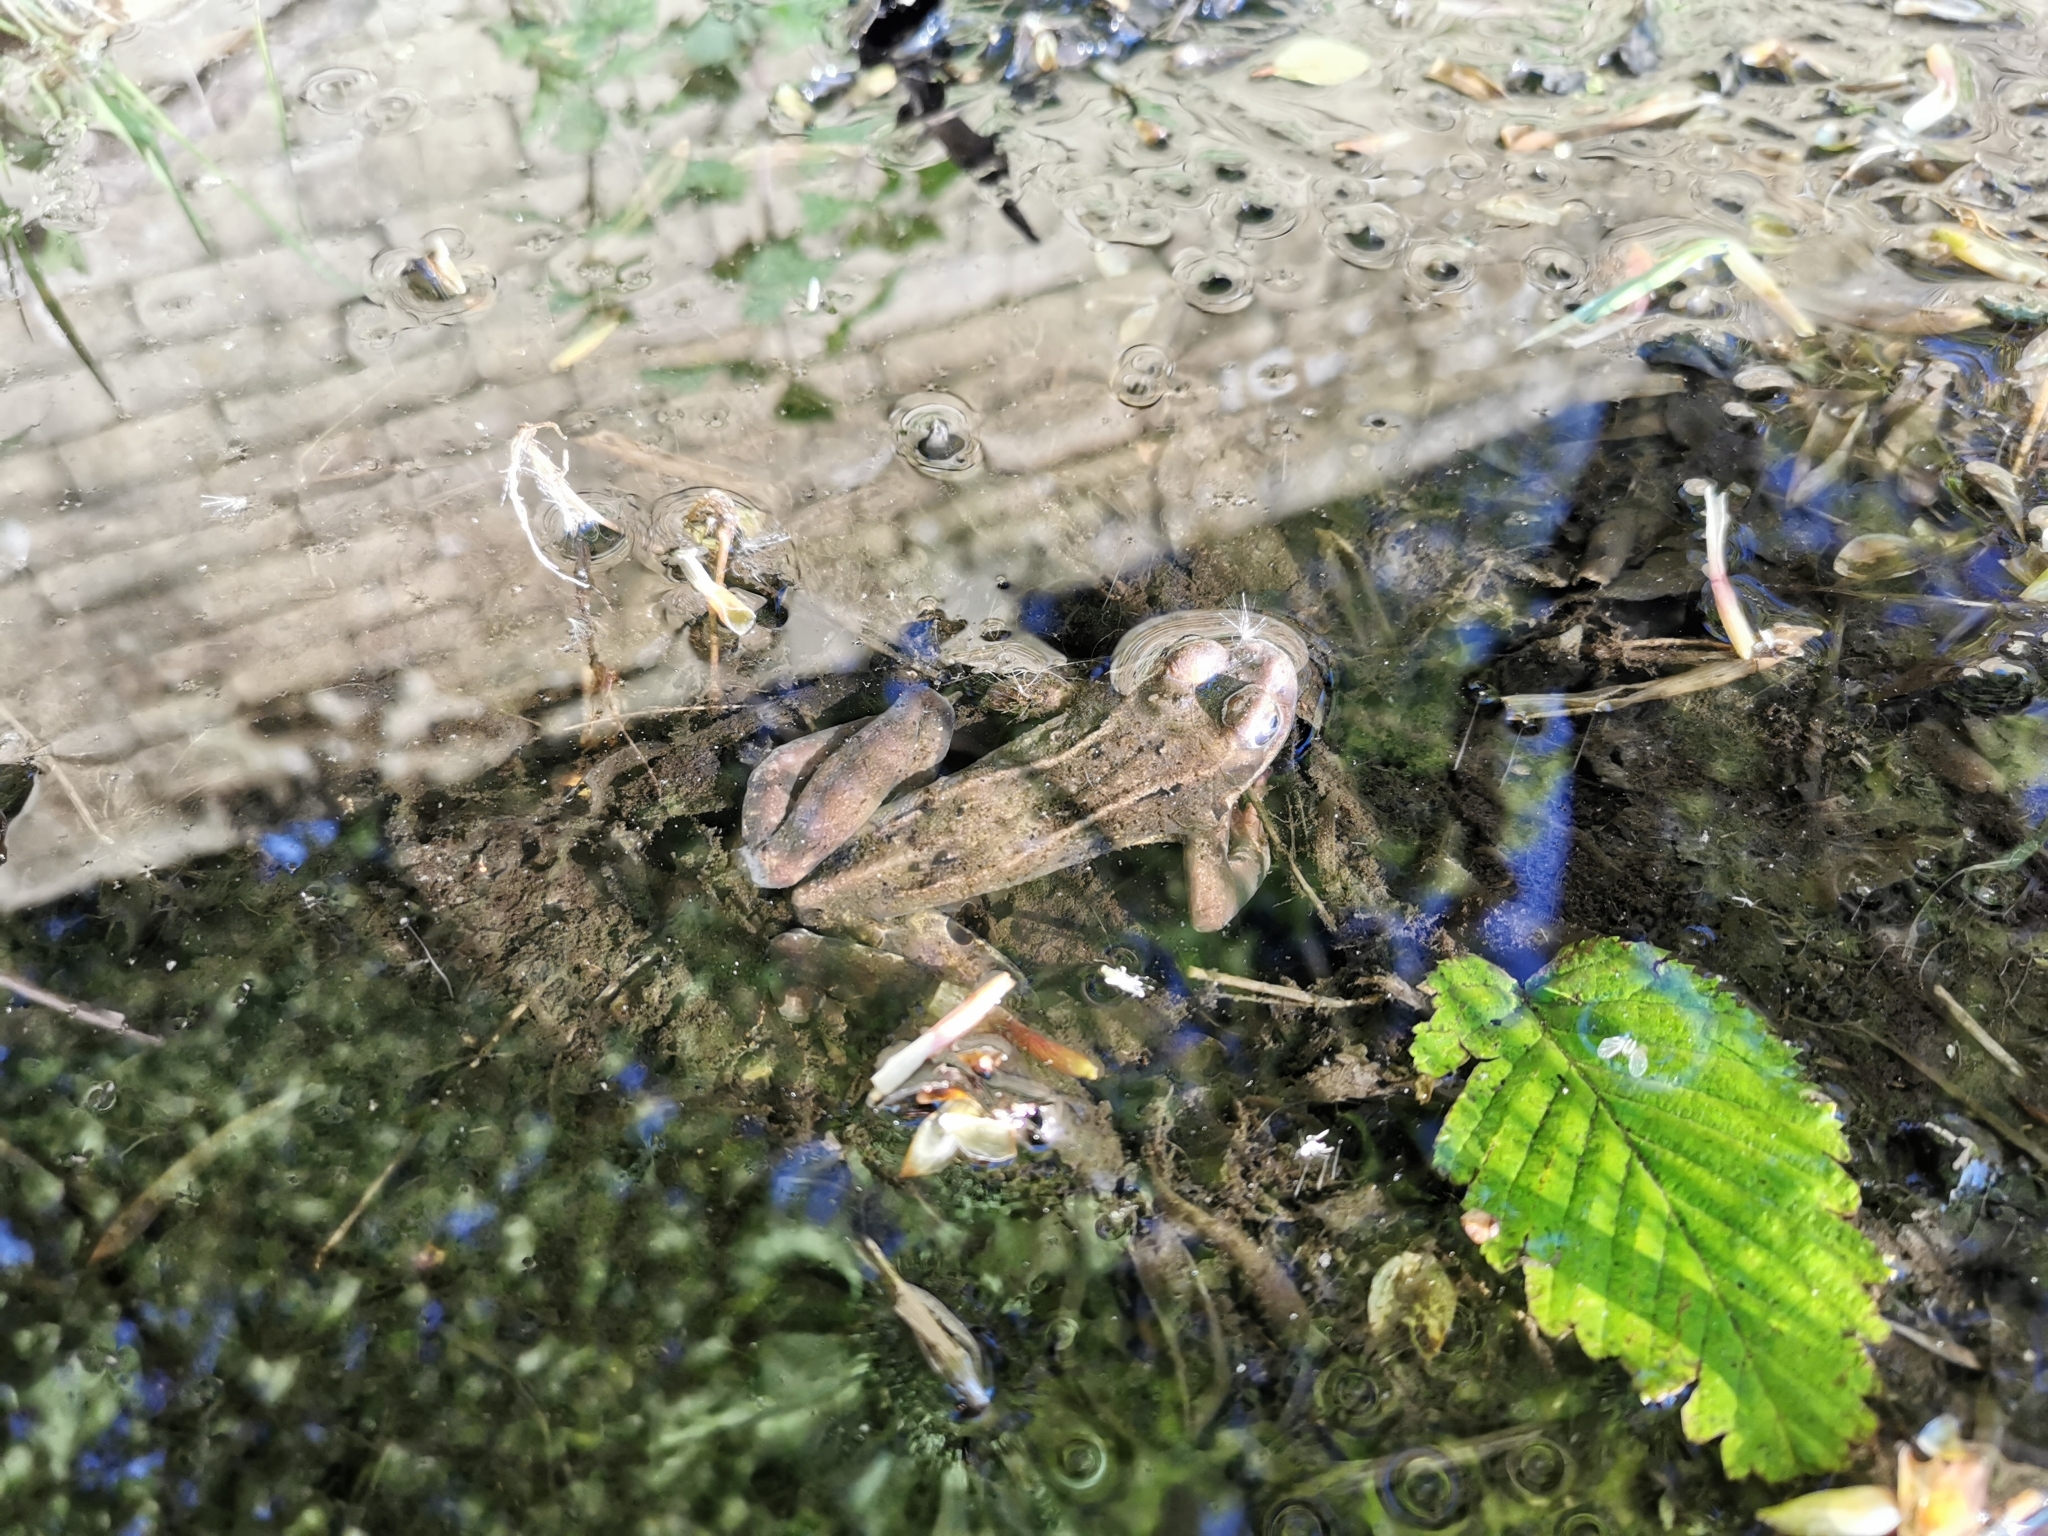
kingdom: Animalia
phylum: Chordata
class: Amphibia
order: Anura
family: Ranidae
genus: Rana
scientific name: Rana temporaria
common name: Common frog
